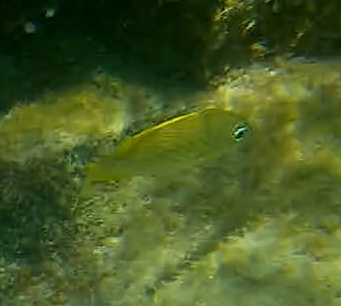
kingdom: Animalia
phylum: Chordata
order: Perciformes
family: Haemulidae
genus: Haemulon
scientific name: Haemulon flavolineatum
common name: French grunt
